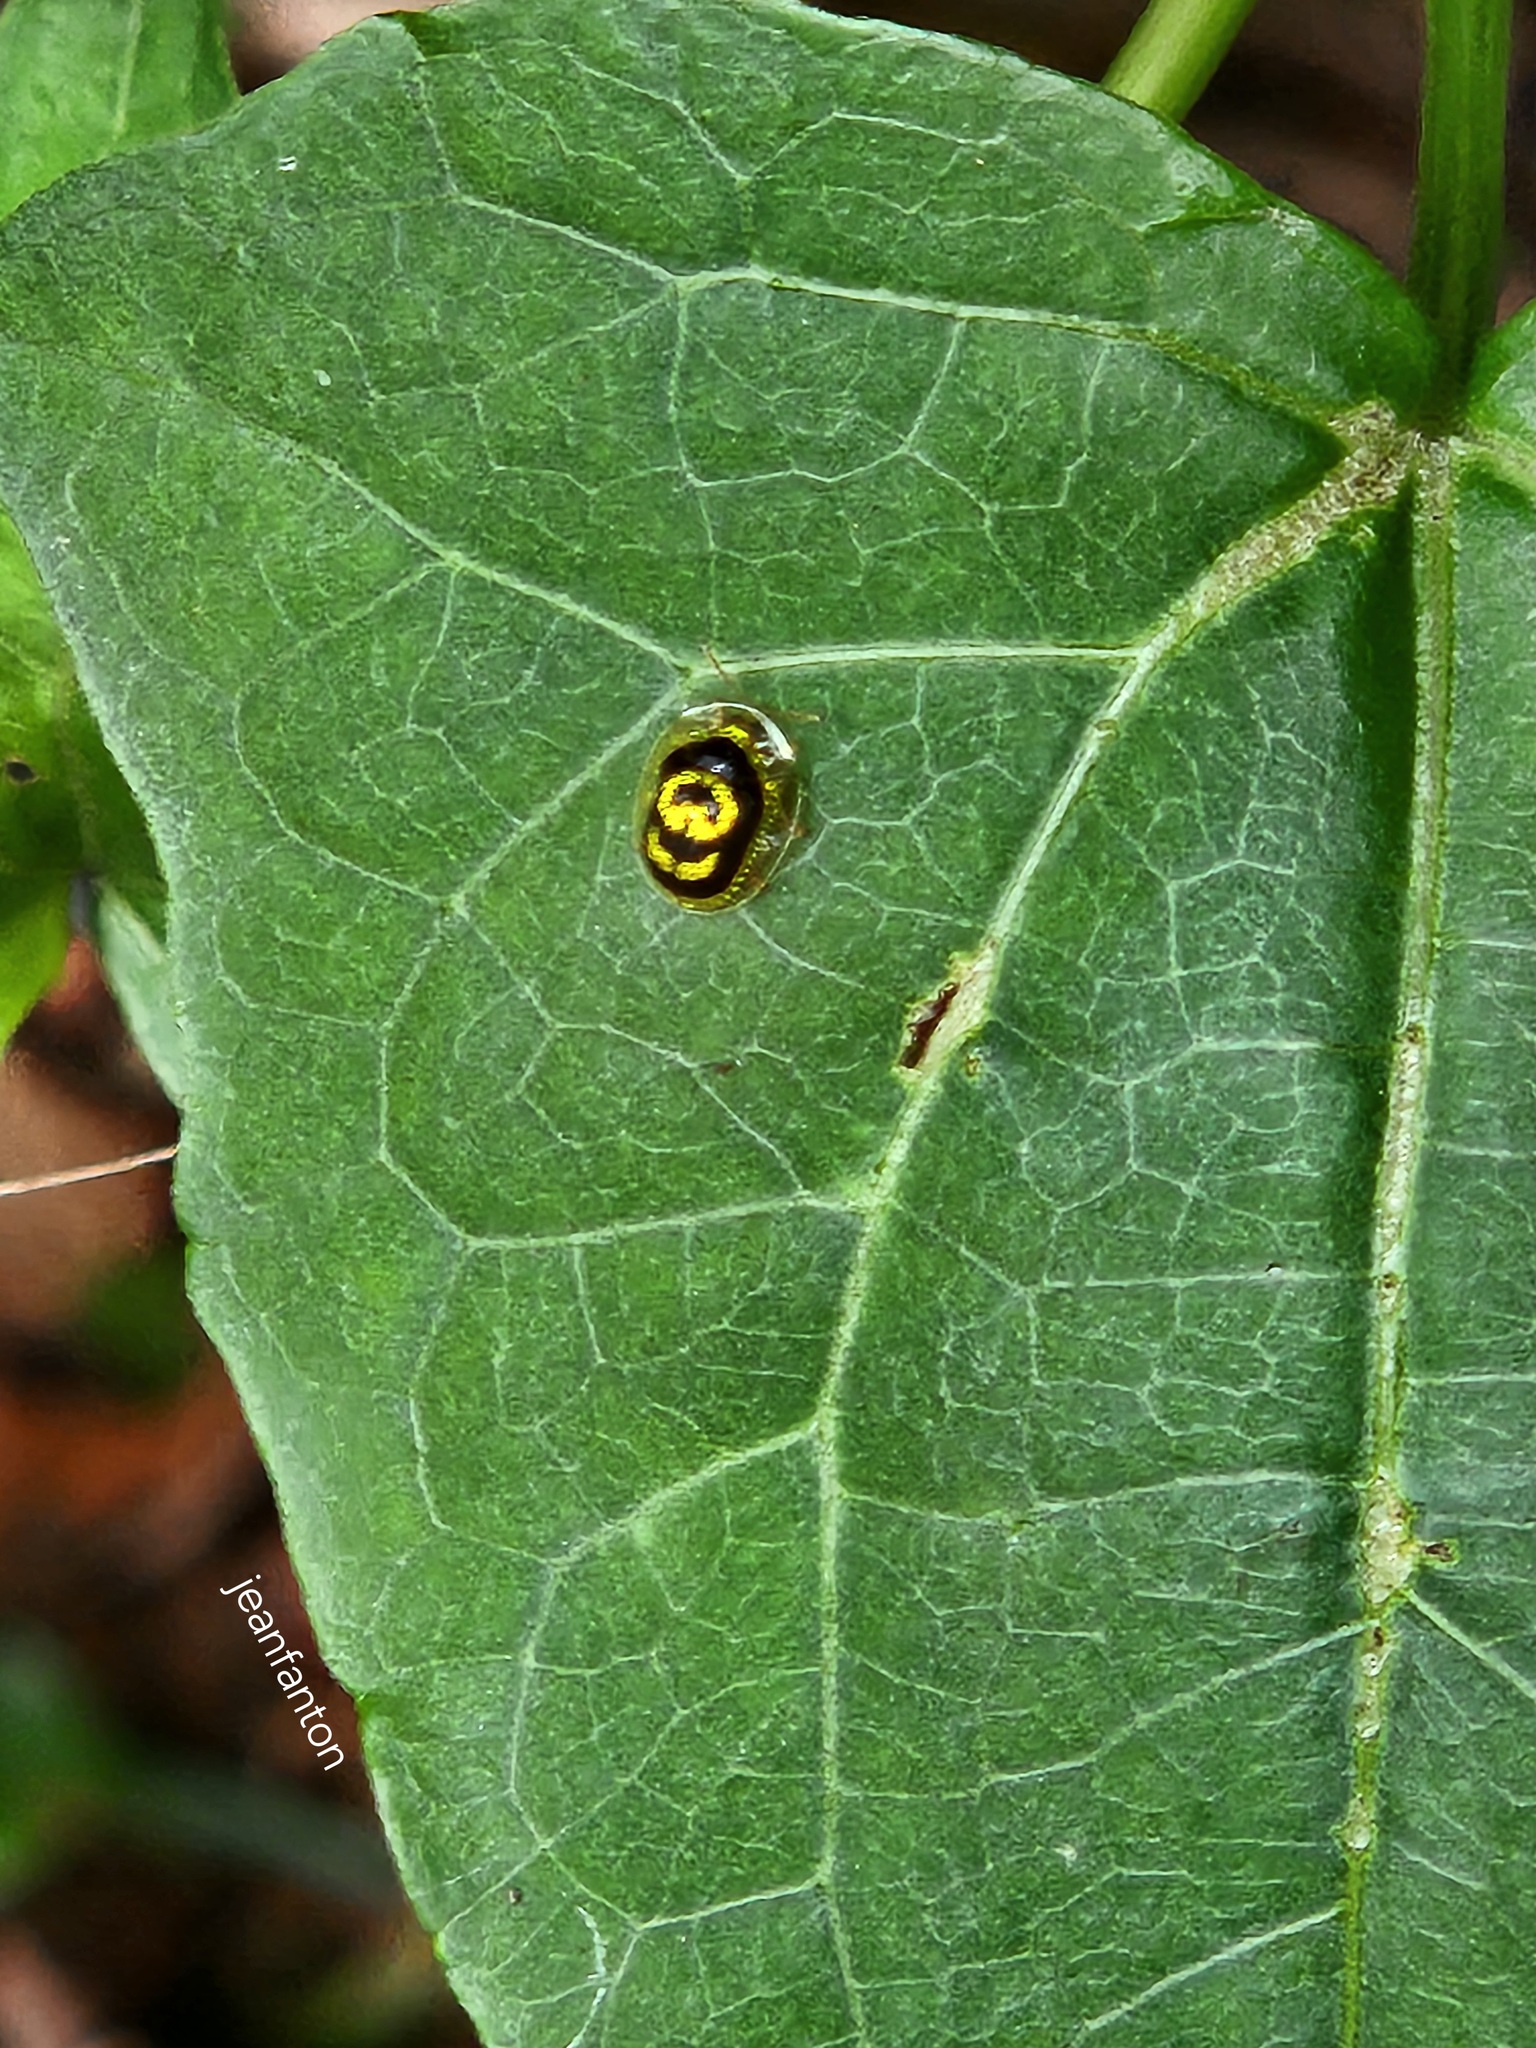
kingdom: Animalia
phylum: Arthropoda
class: Insecta
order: Coleoptera
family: Chrysomelidae
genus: Microctenochira
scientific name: Microctenochira soleifera
